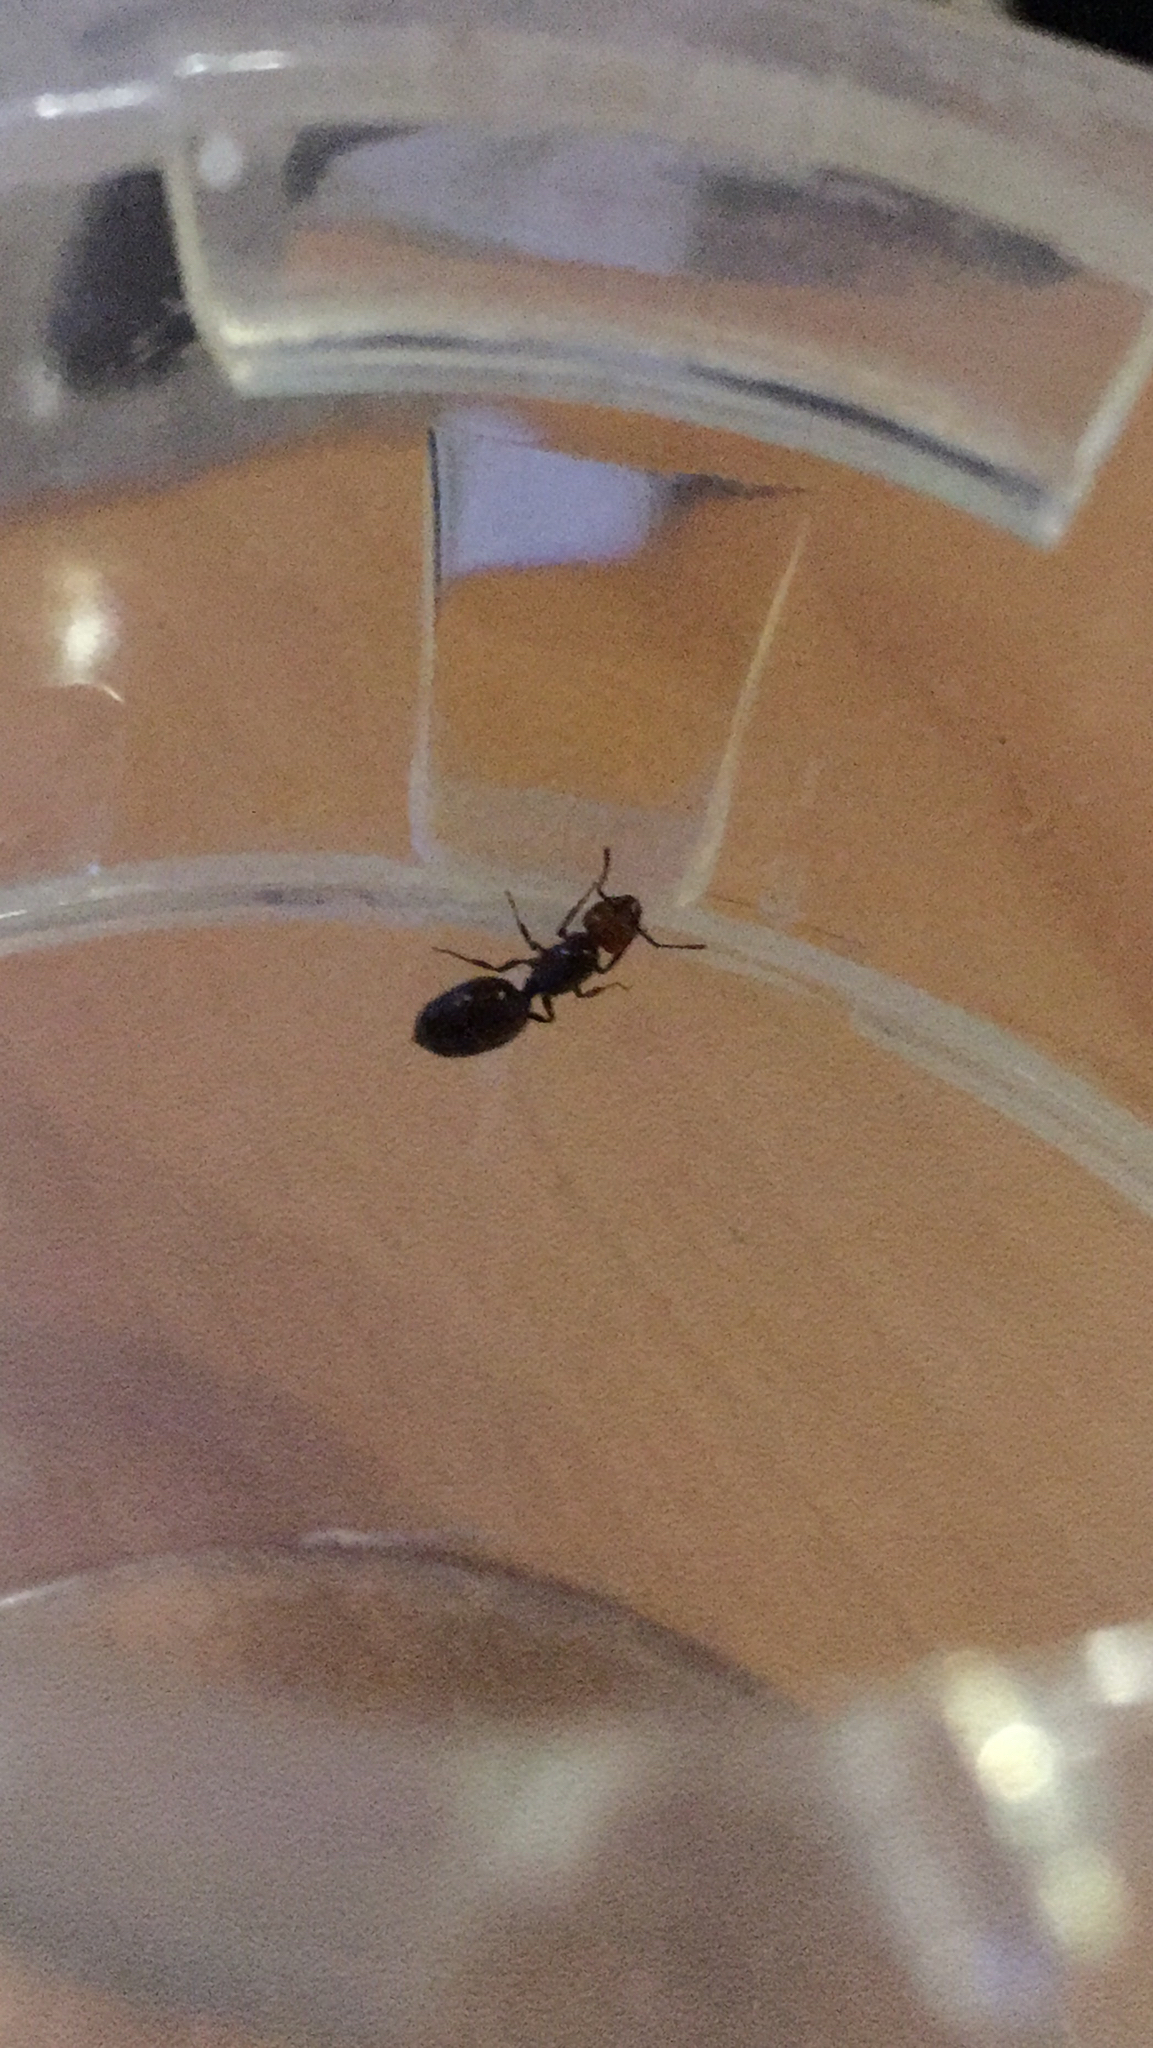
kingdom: Animalia
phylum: Arthropoda
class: Insecta
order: Hymenoptera
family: Formicidae
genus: Crematogaster
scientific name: Crematogaster scutellaris
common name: Fourmi du liège
